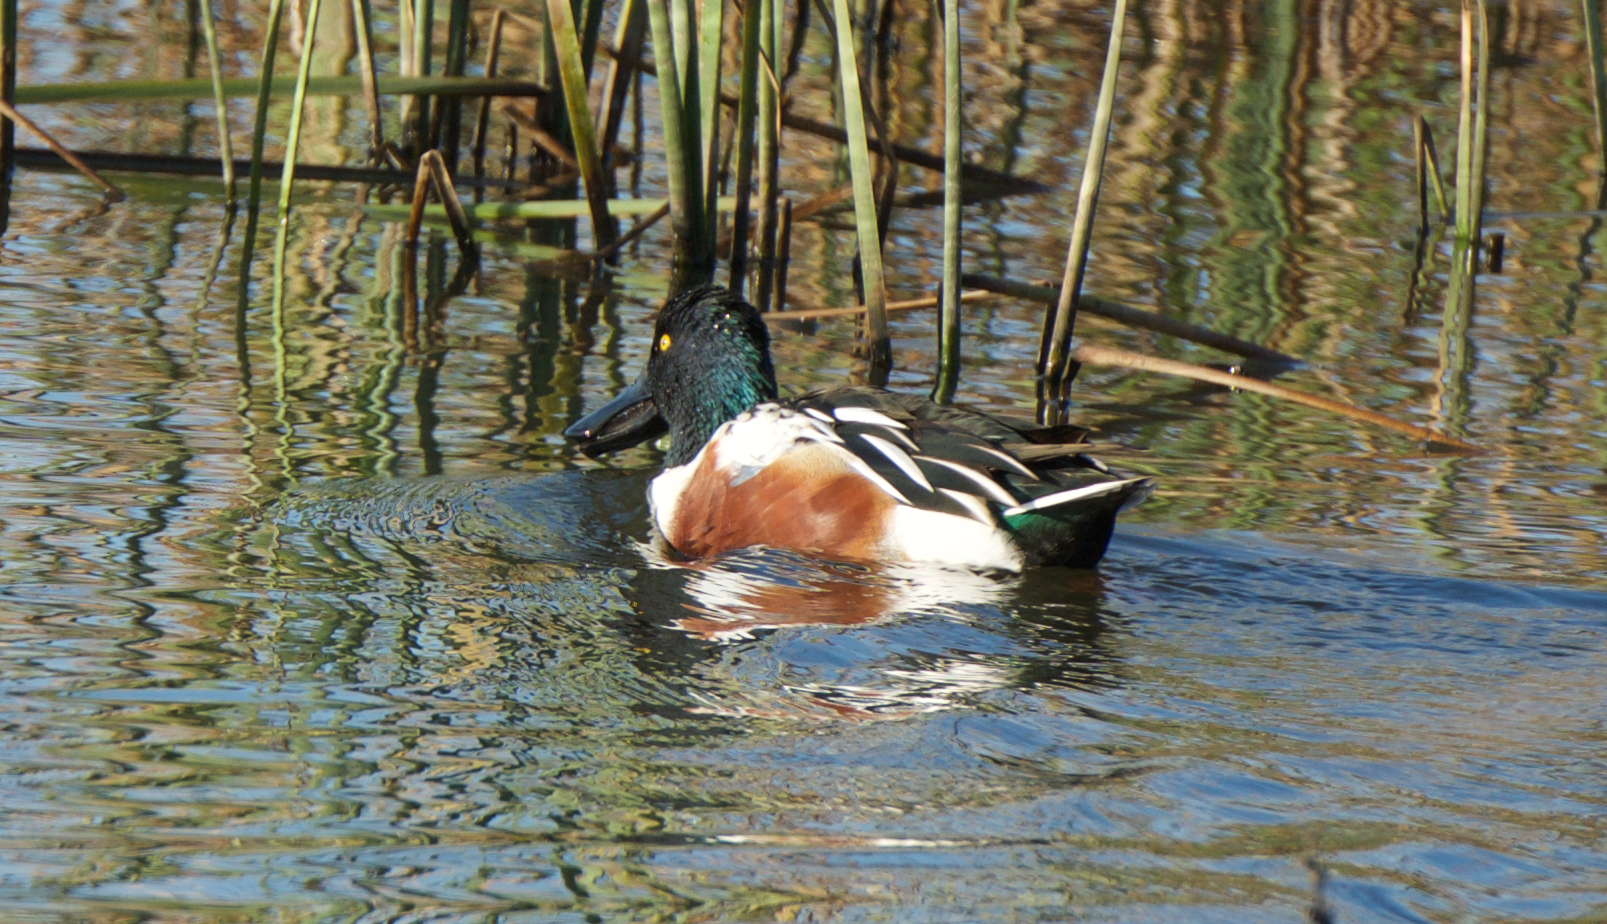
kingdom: Animalia
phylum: Chordata
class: Aves
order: Anseriformes
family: Anatidae
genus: Spatula
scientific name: Spatula clypeata
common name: Northern shoveler
